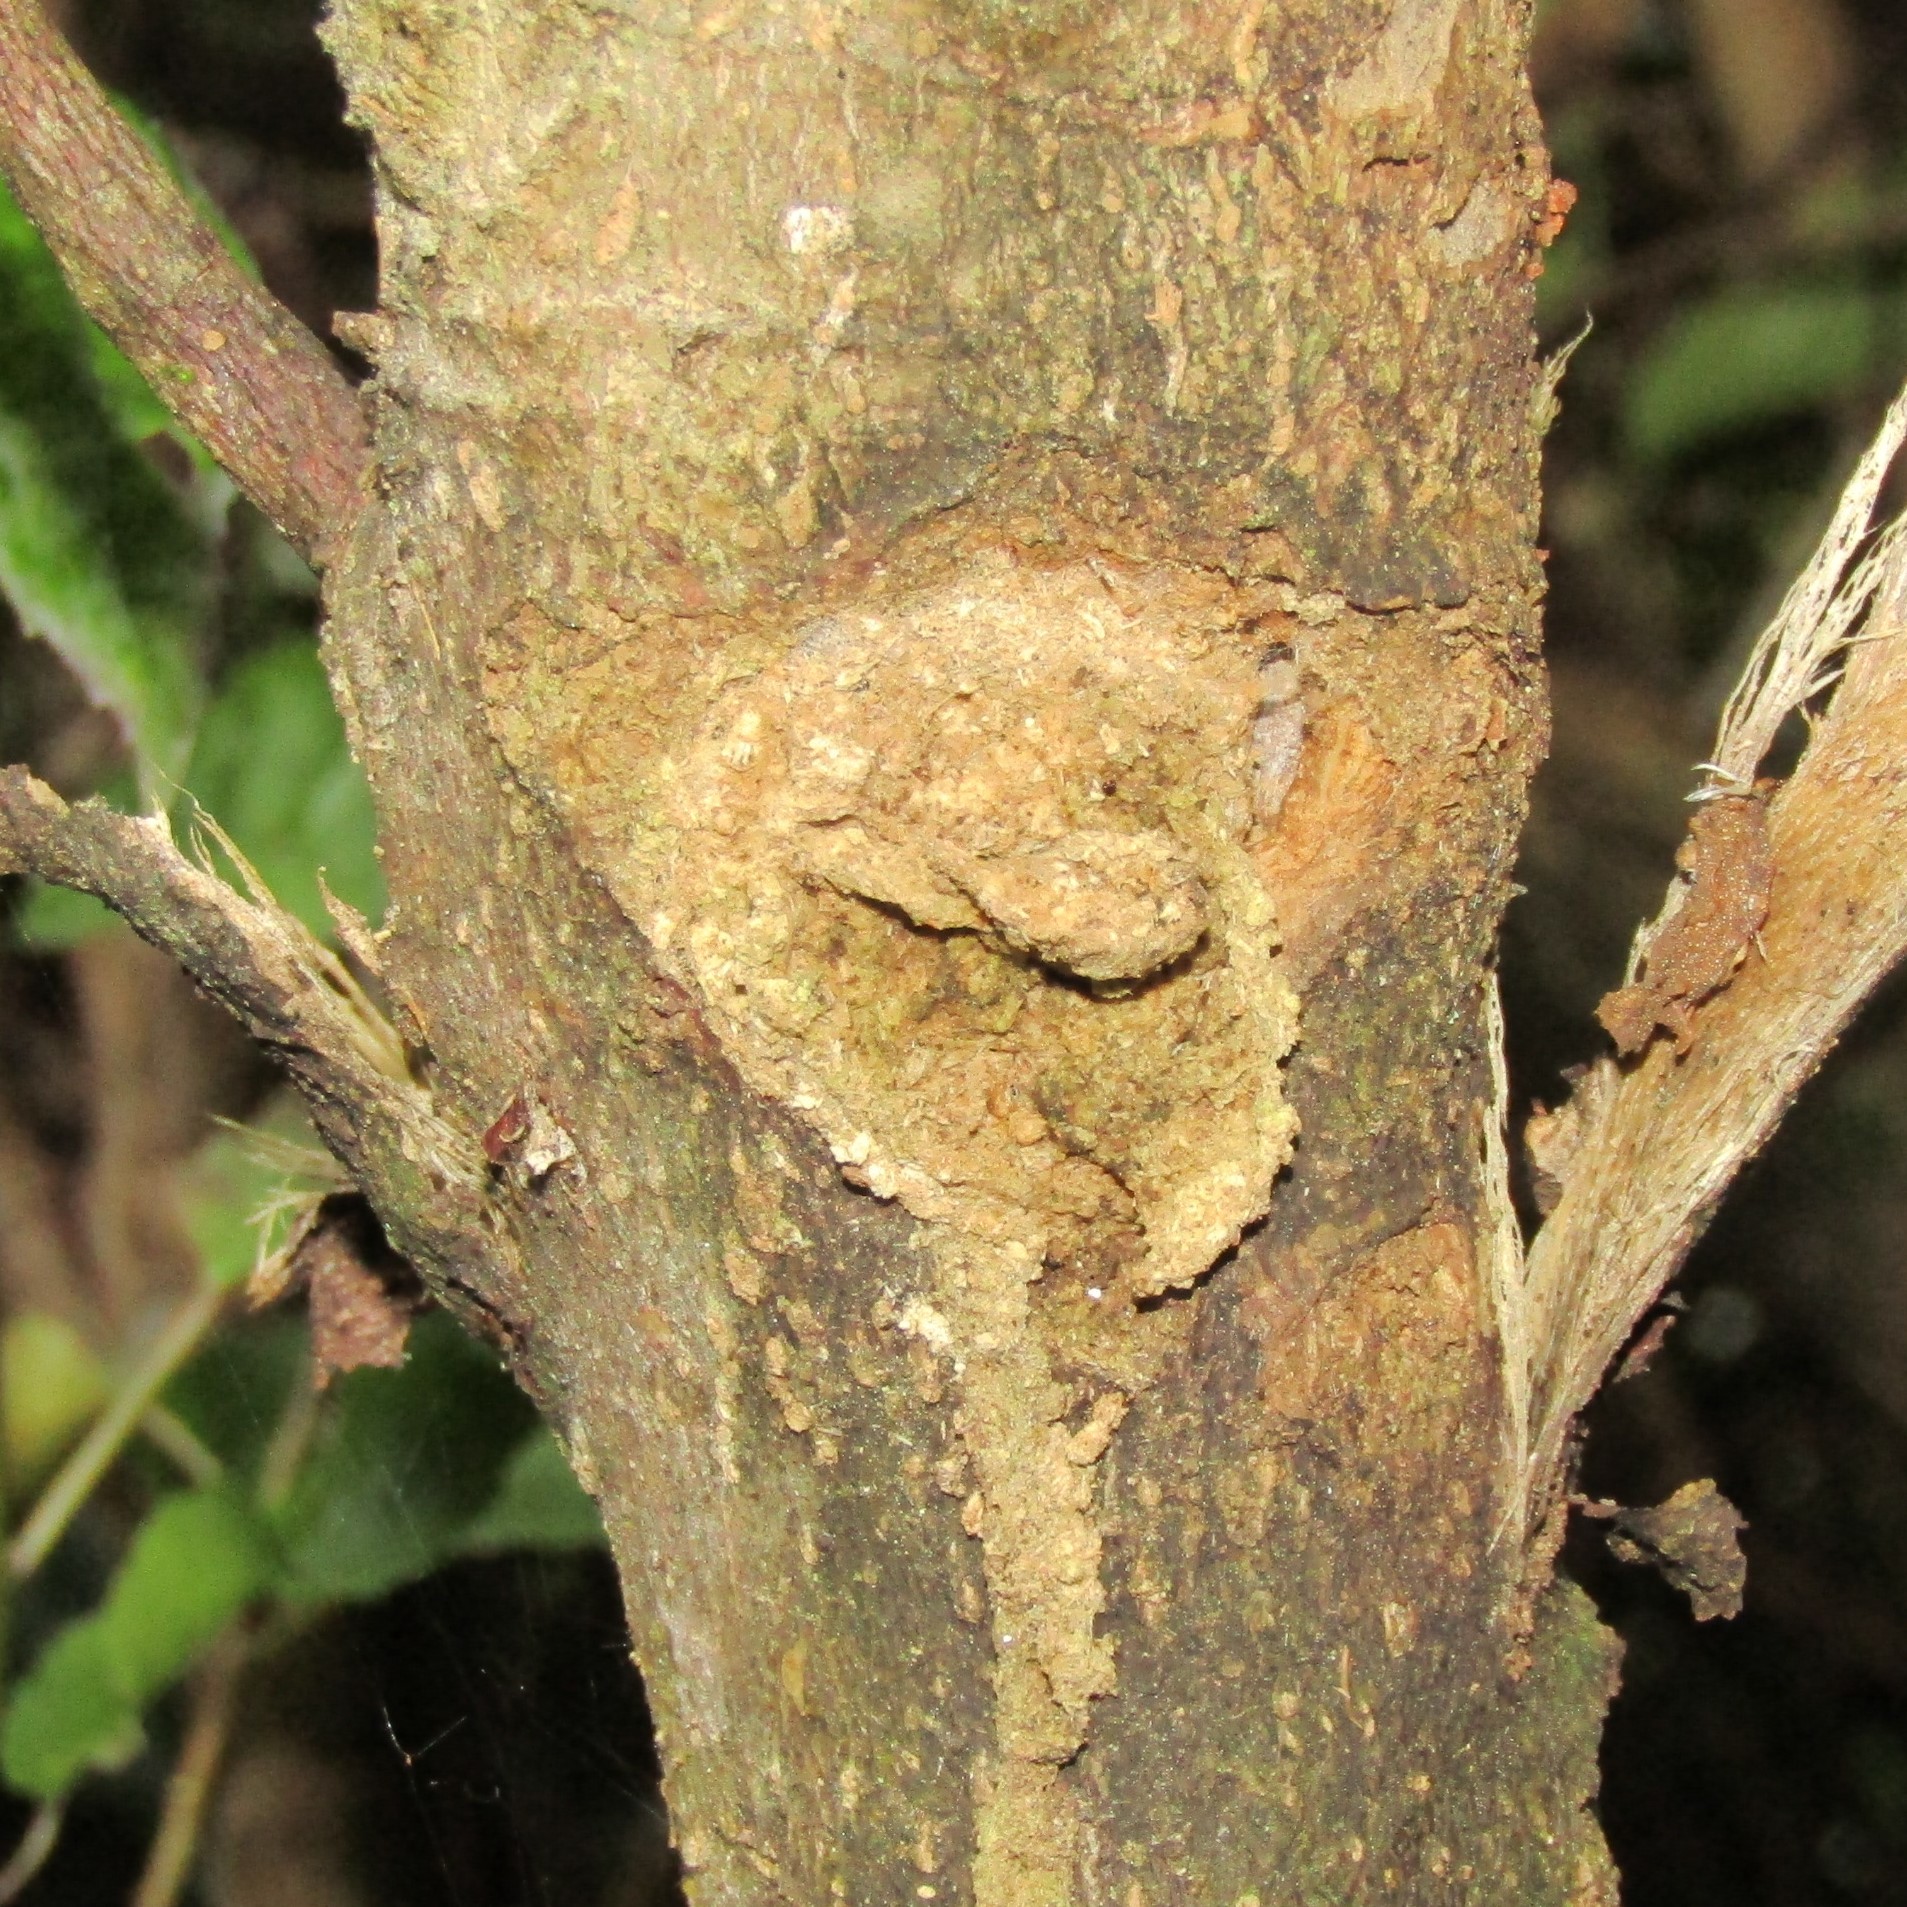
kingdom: Animalia
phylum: Arthropoda
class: Insecta
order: Lepidoptera
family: Hepialidae
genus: Aenetus
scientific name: Aenetus virescens
